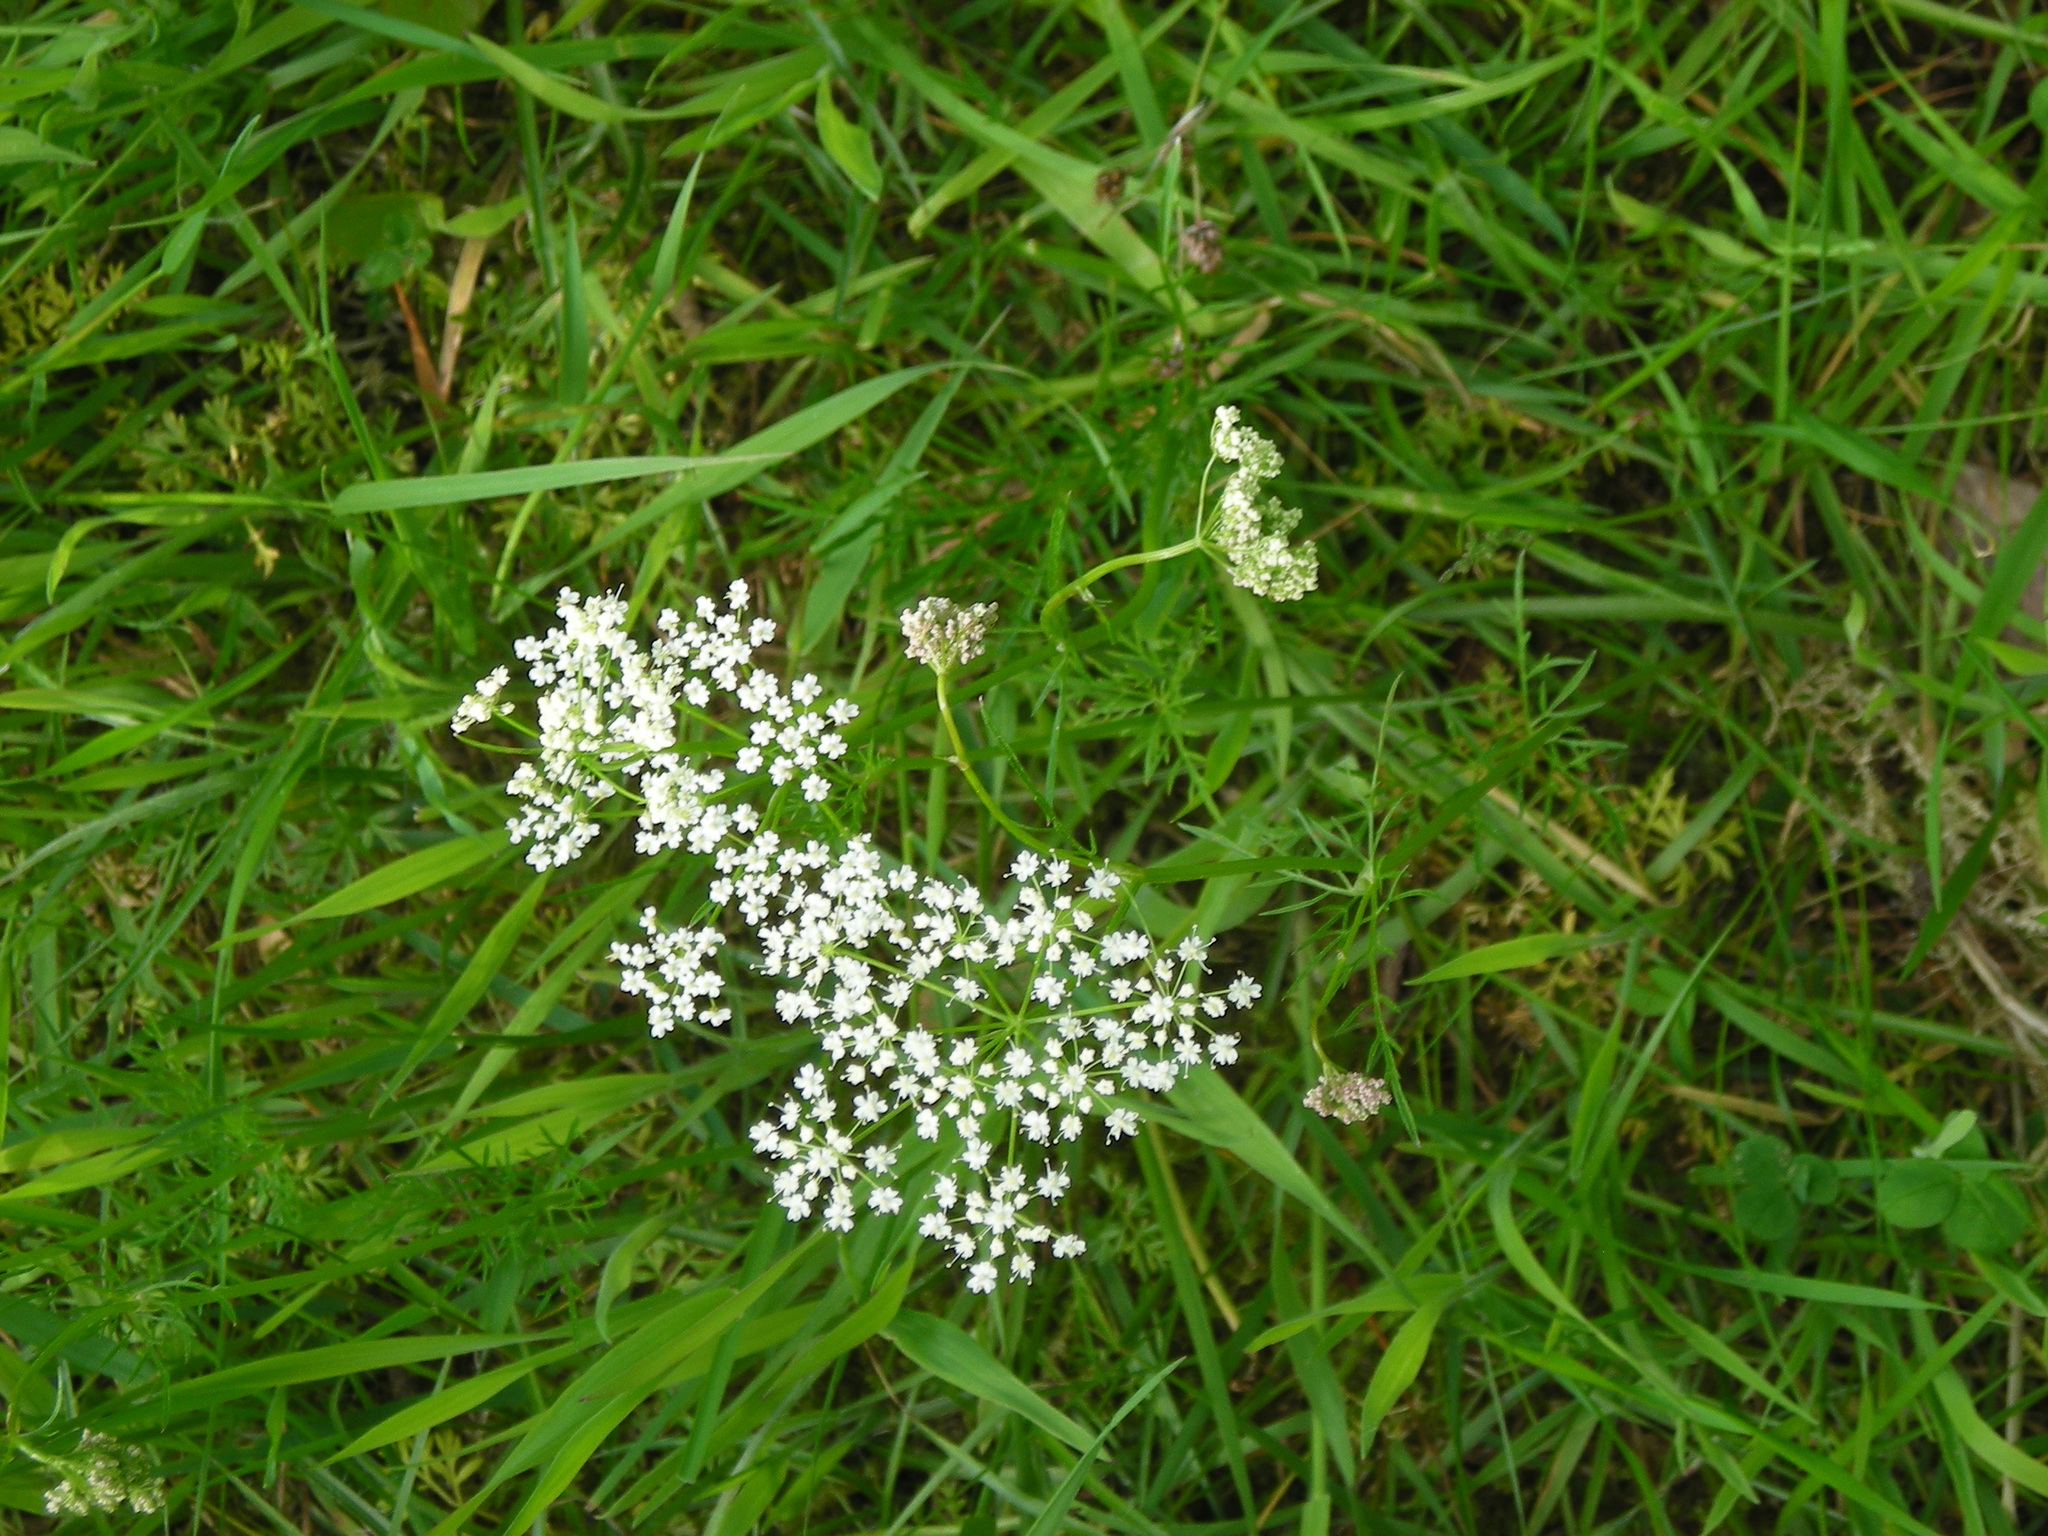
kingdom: Plantae
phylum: Tracheophyta
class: Magnoliopsida
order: Apiales
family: Apiaceae
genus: Conopodium
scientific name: Conopodium majus
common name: Pignut
